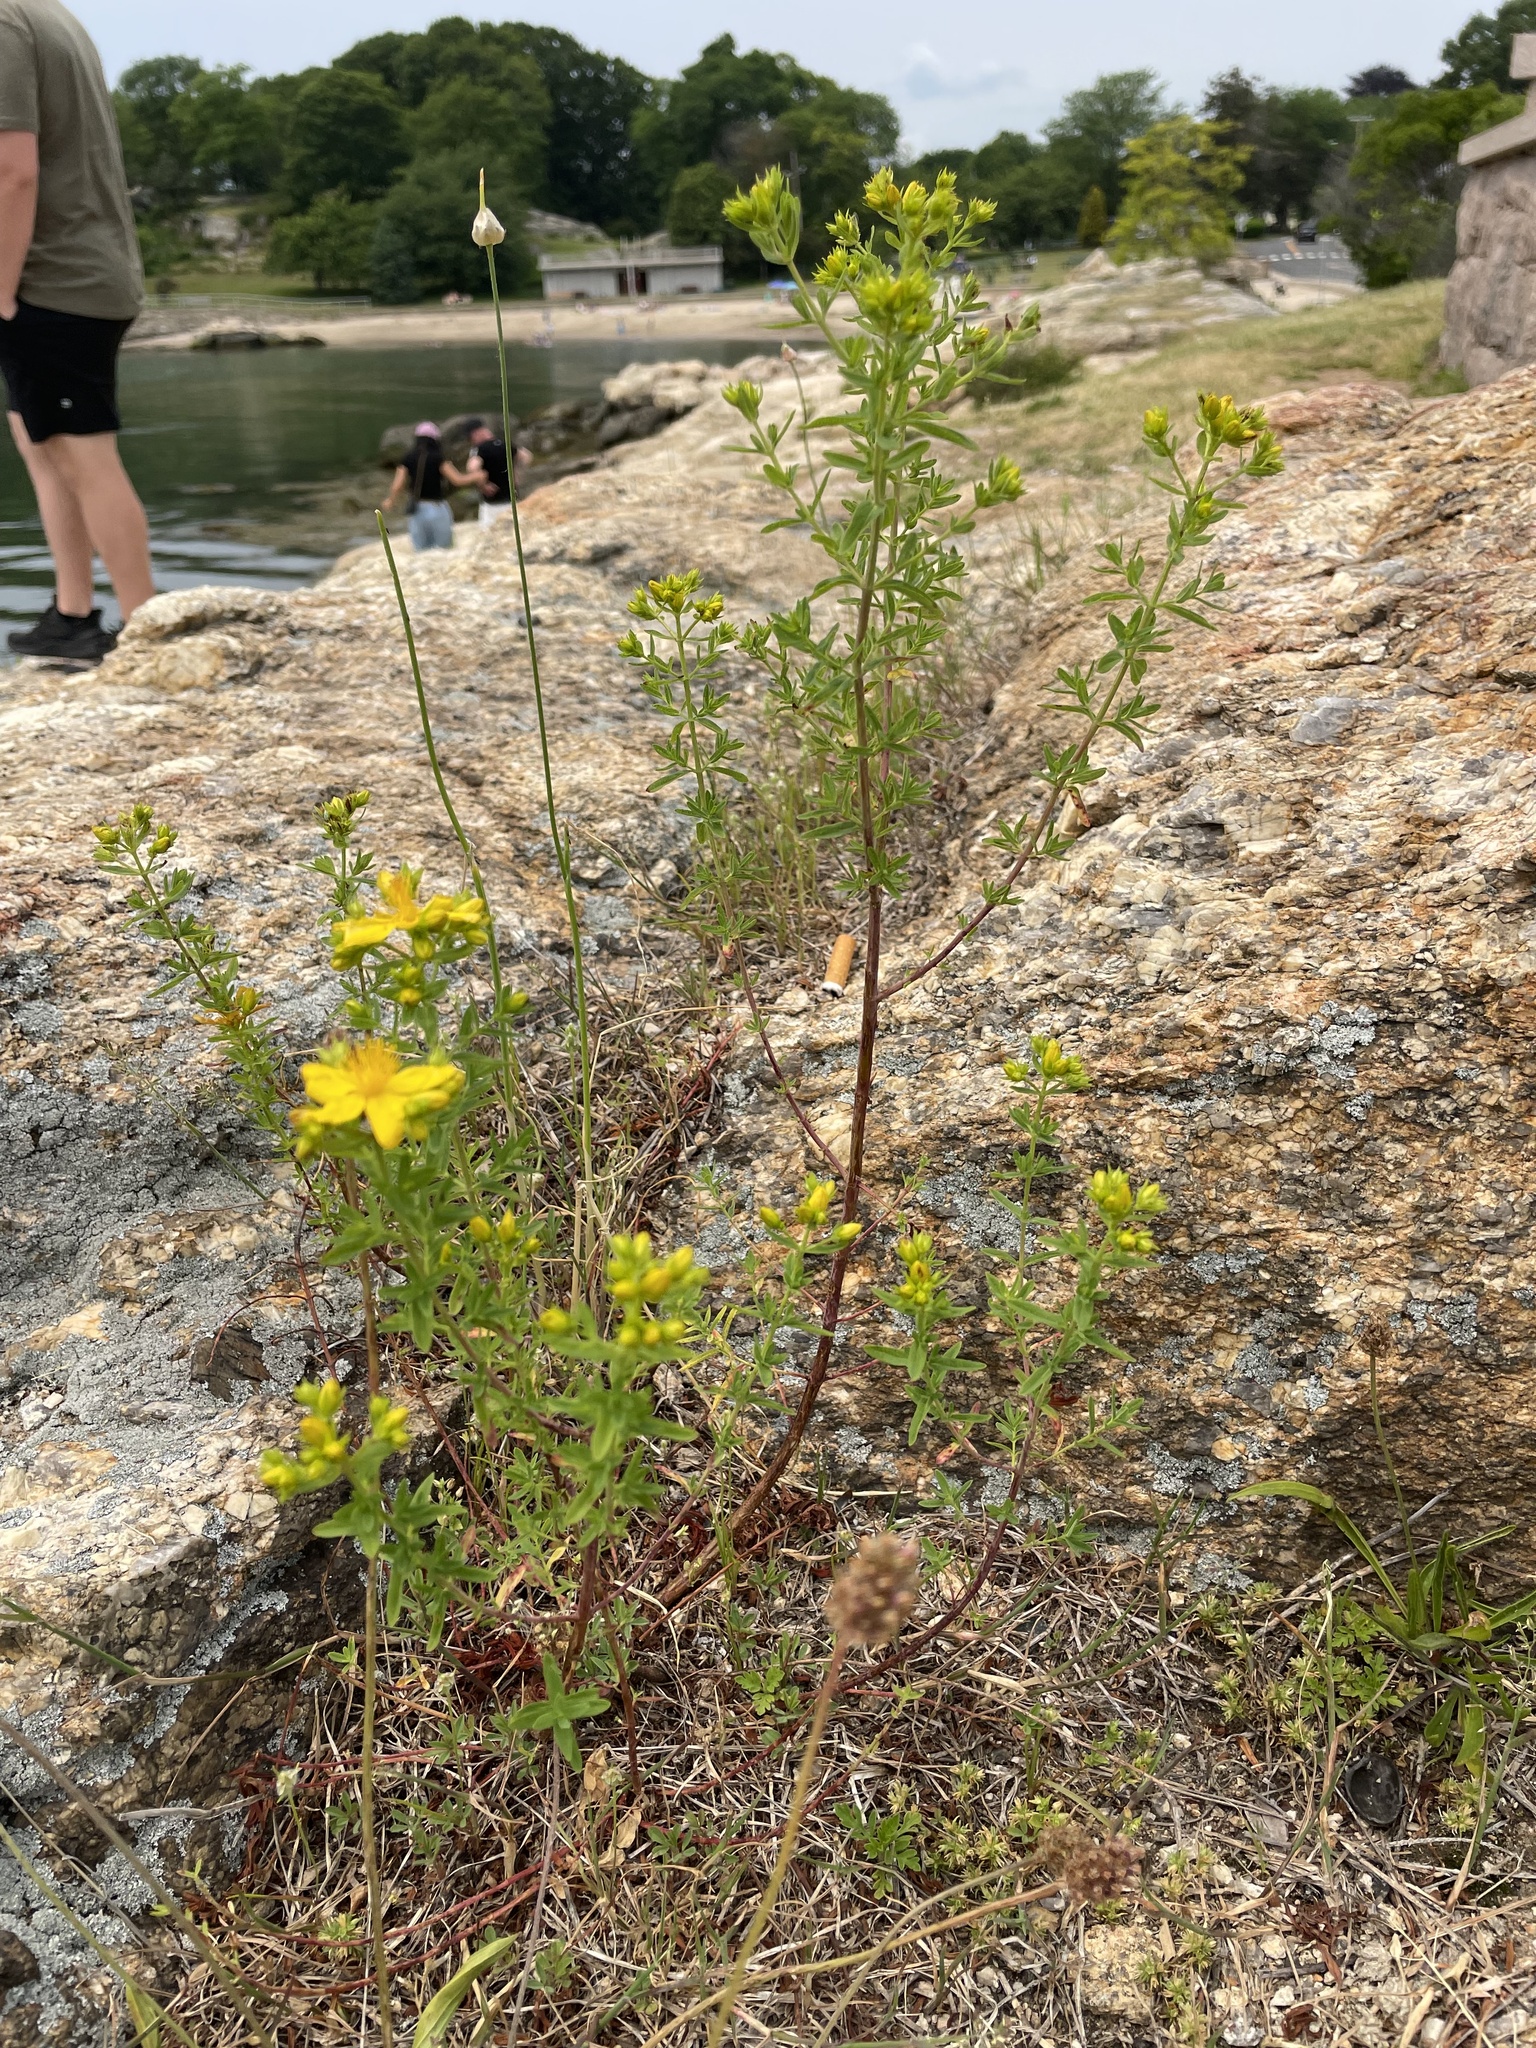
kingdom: Plantae
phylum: Tracheophyta
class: Magnoliopsida
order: Malpighiales
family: Hypericaceae
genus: Hypericum
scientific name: Hypericum perforatum
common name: Common st. johnswort
